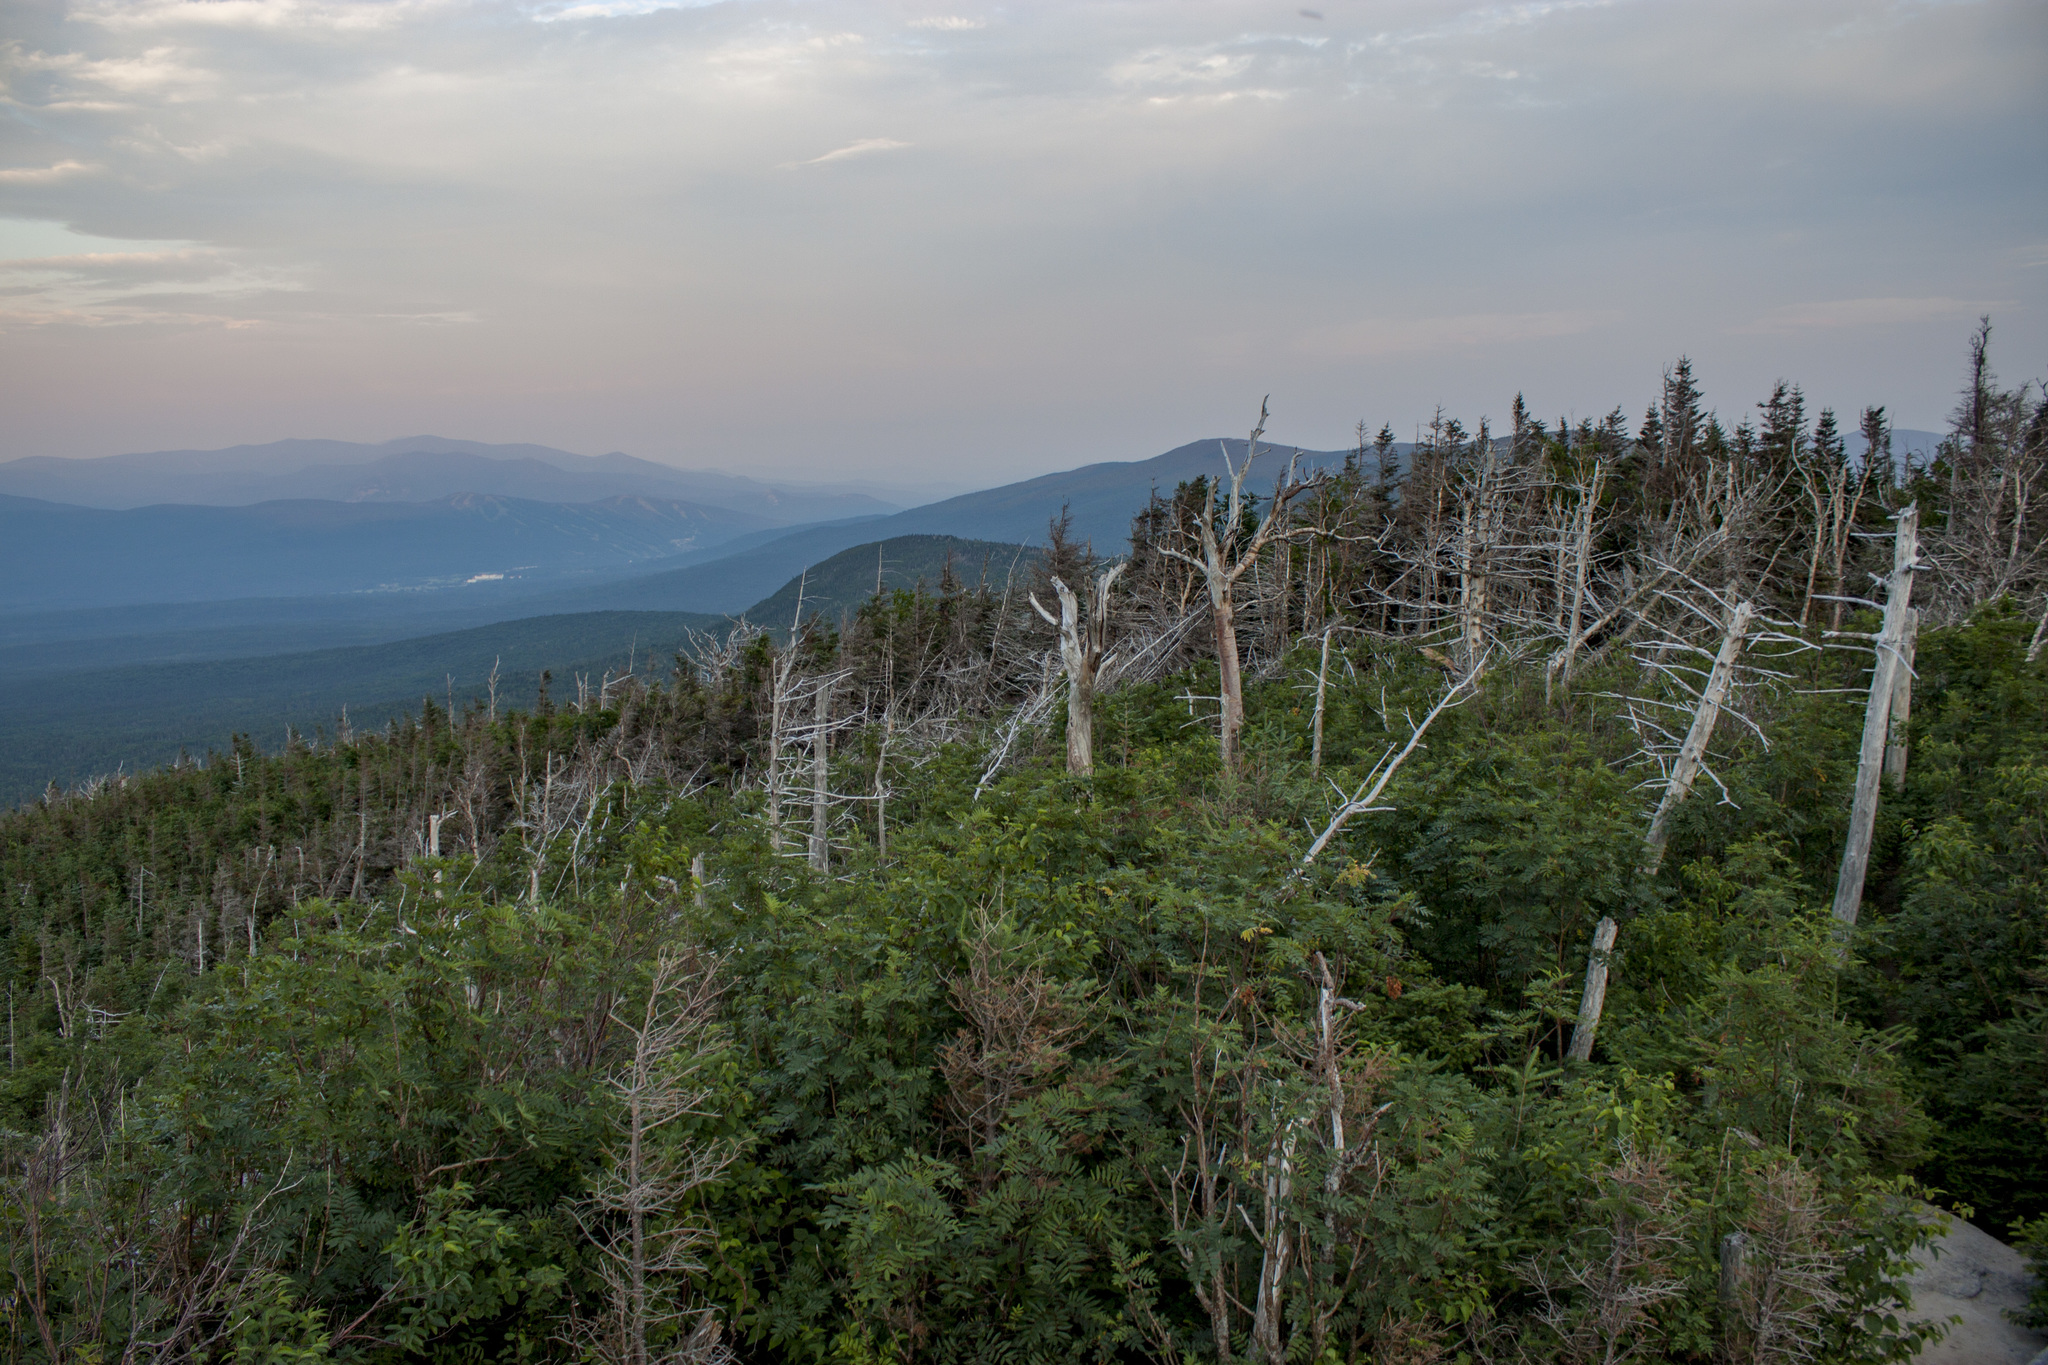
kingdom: Plantae
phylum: Tracheophyta
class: Pinopsida
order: Pinales
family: Pinaceae
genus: Abies
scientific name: Abies balsamea
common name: Balsam fir
